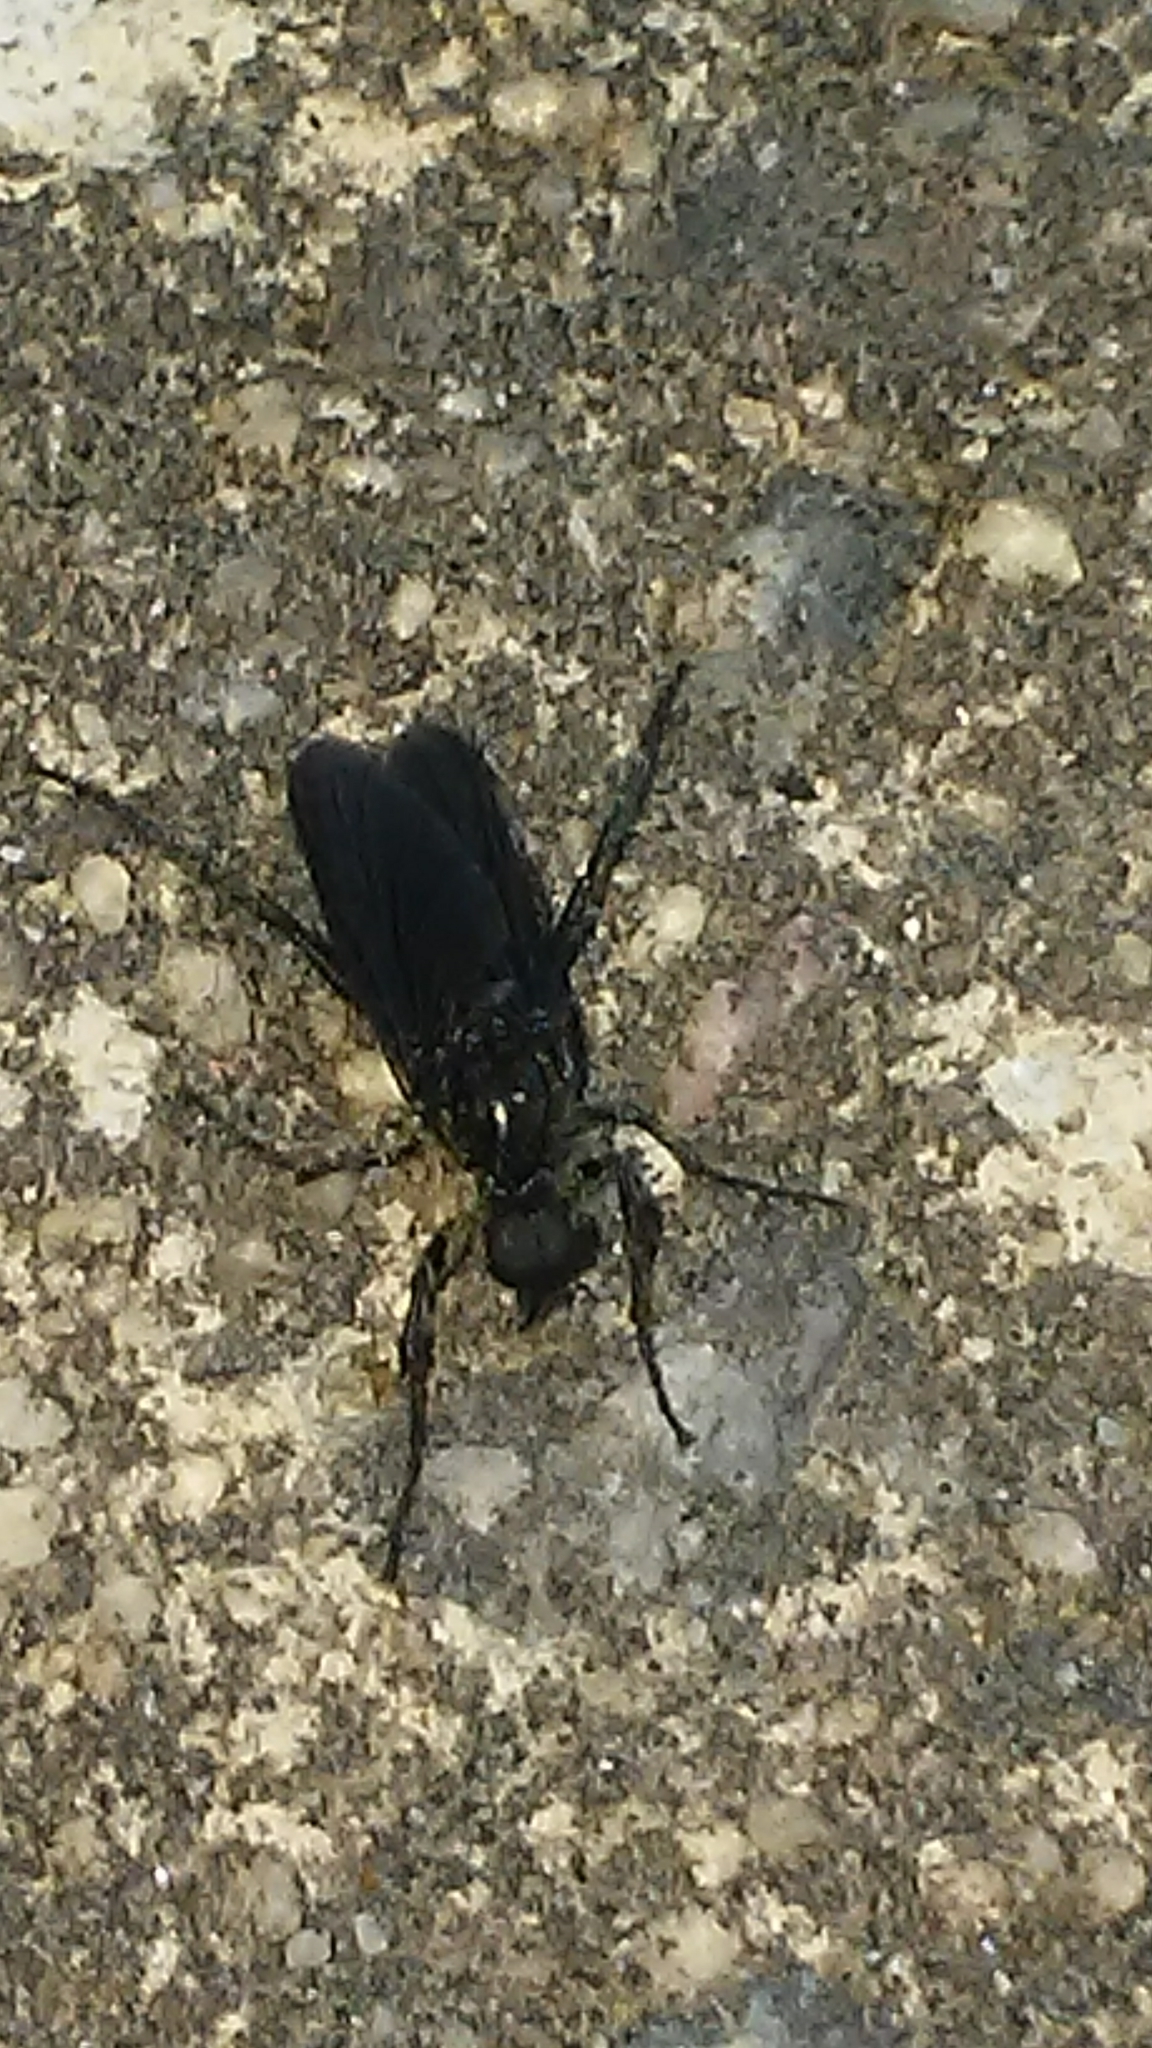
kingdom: Animalia
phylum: Arthropoda
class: Insecta
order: Diptera
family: Bibionidae
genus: Bibio
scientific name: Bibio superfluus
